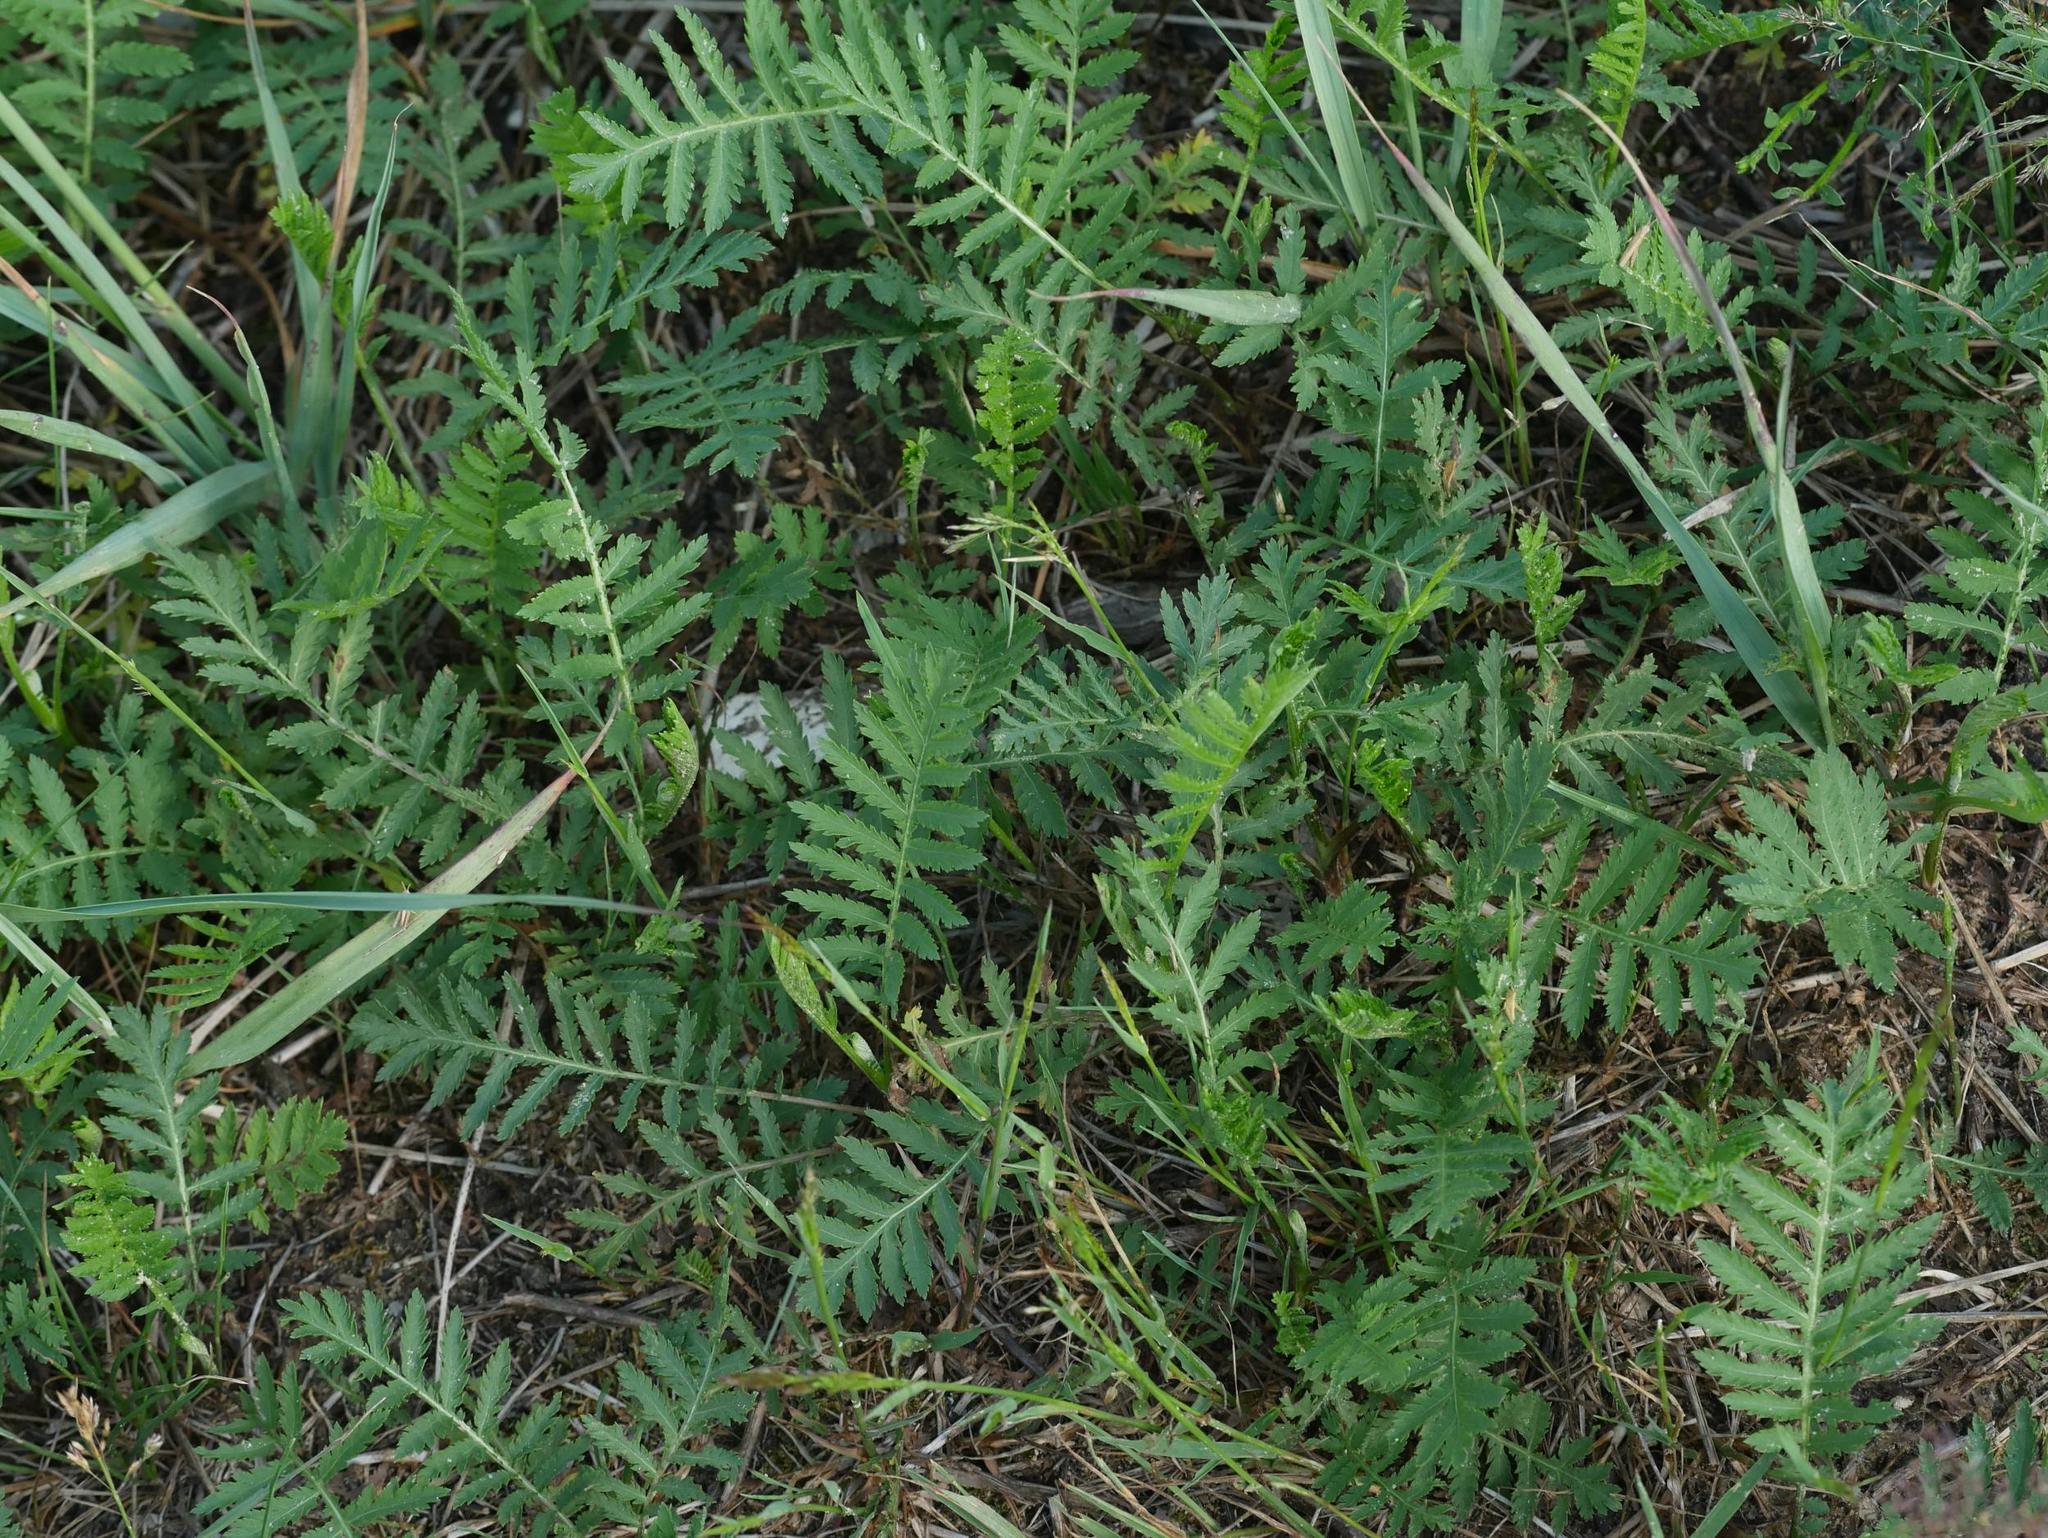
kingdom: Plantae
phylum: Tracheophyta
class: Magnoliopsida
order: Asterales
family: Asteraceae
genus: Tanacetum
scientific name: Tanacetum vulgare
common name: Common tansy
